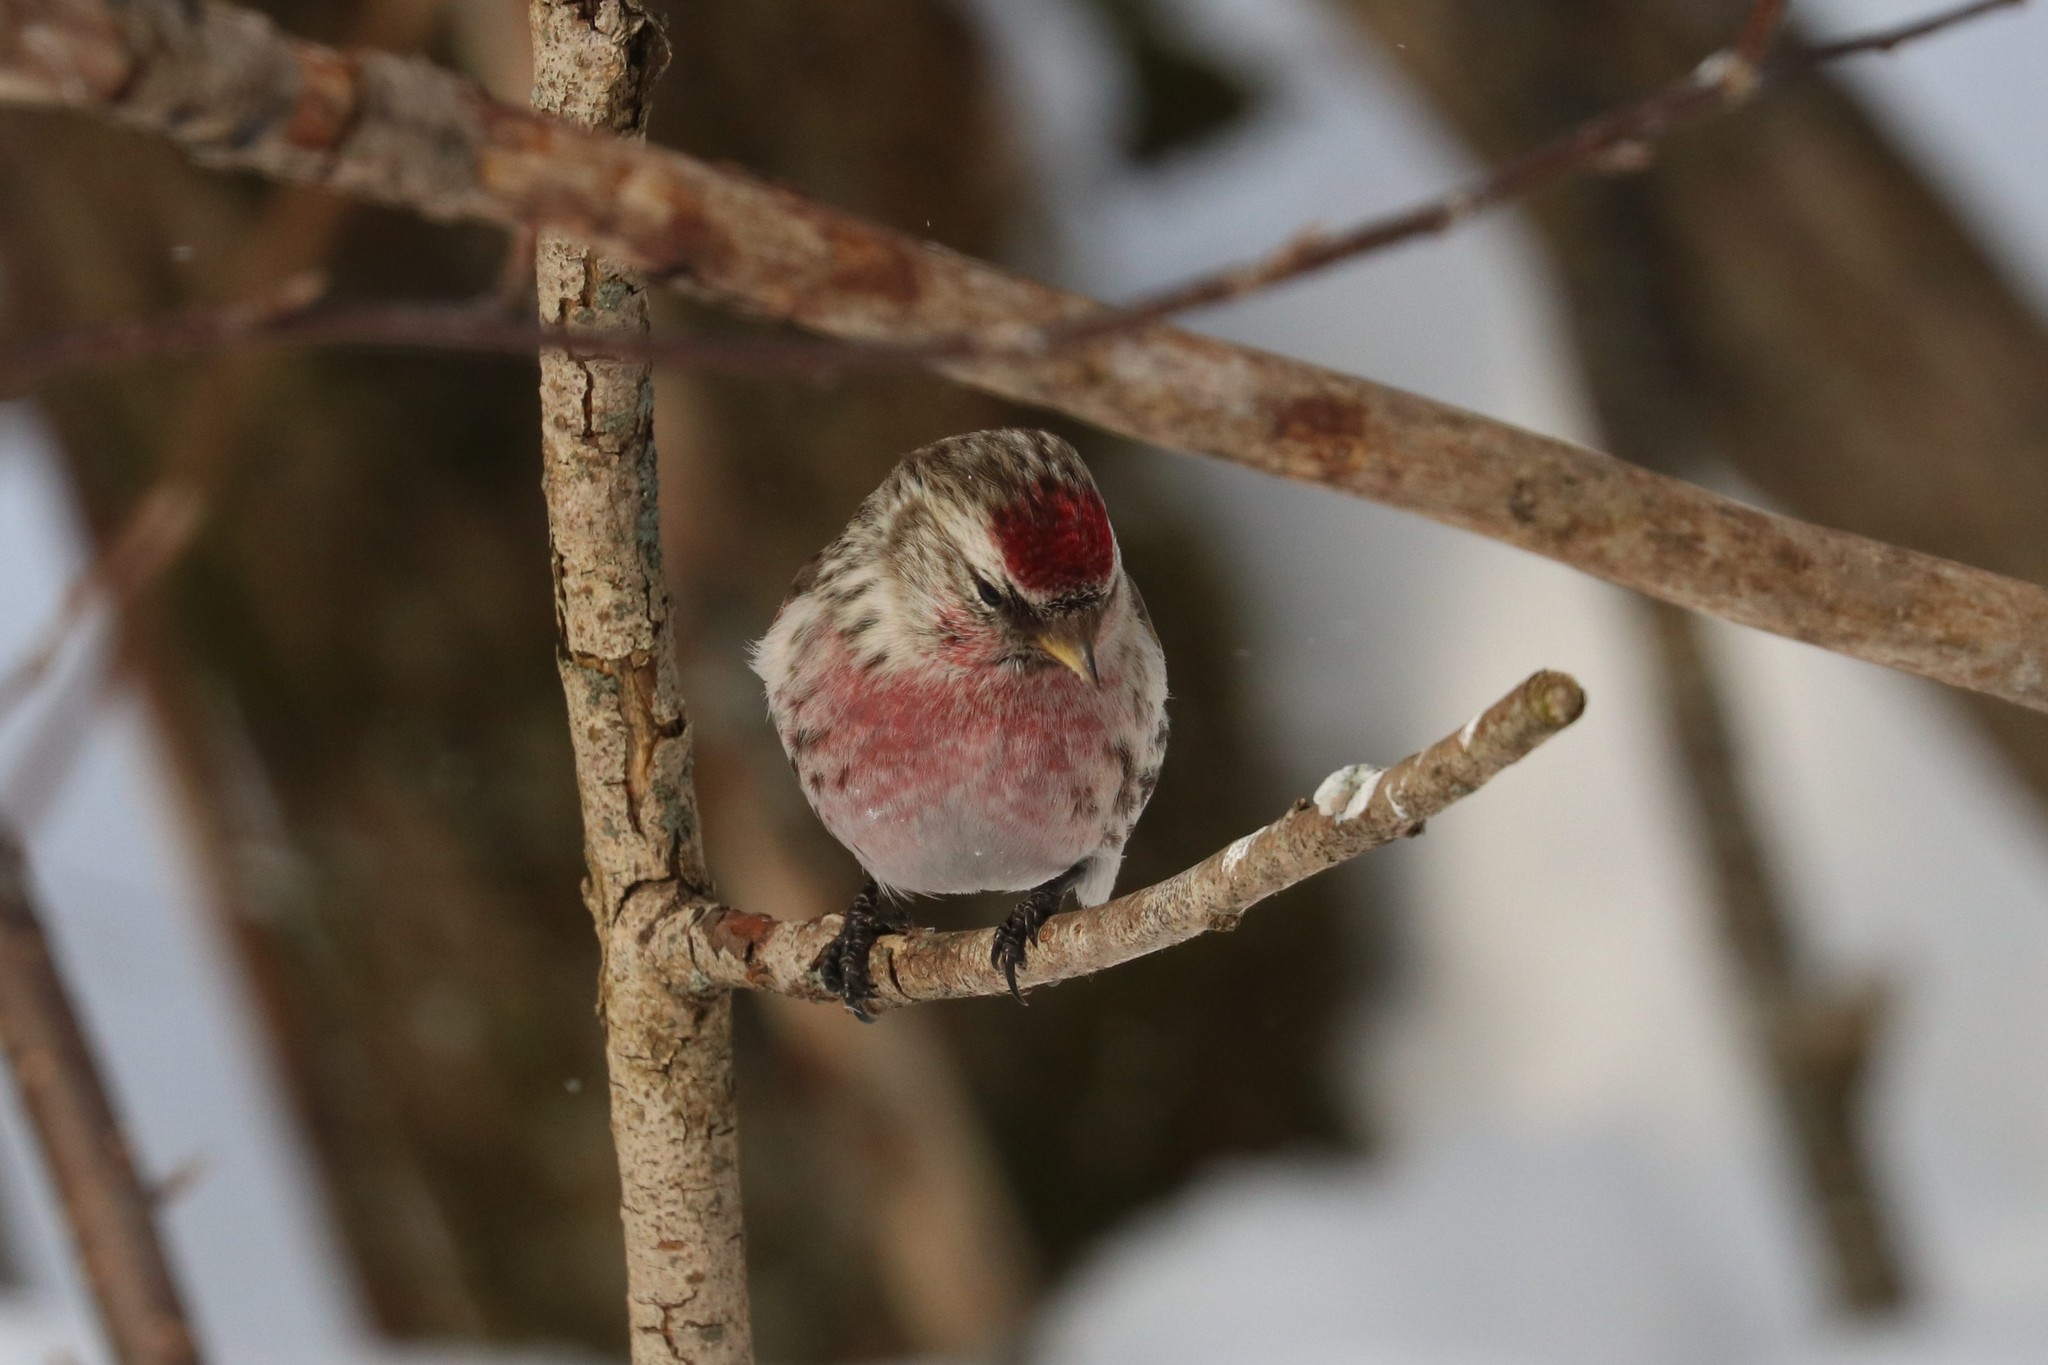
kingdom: Animalia
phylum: Chordata
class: Aves
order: Passeriformes
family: Fringillidae
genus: Acanthis
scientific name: Acanthis flammea
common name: Common redpoll
